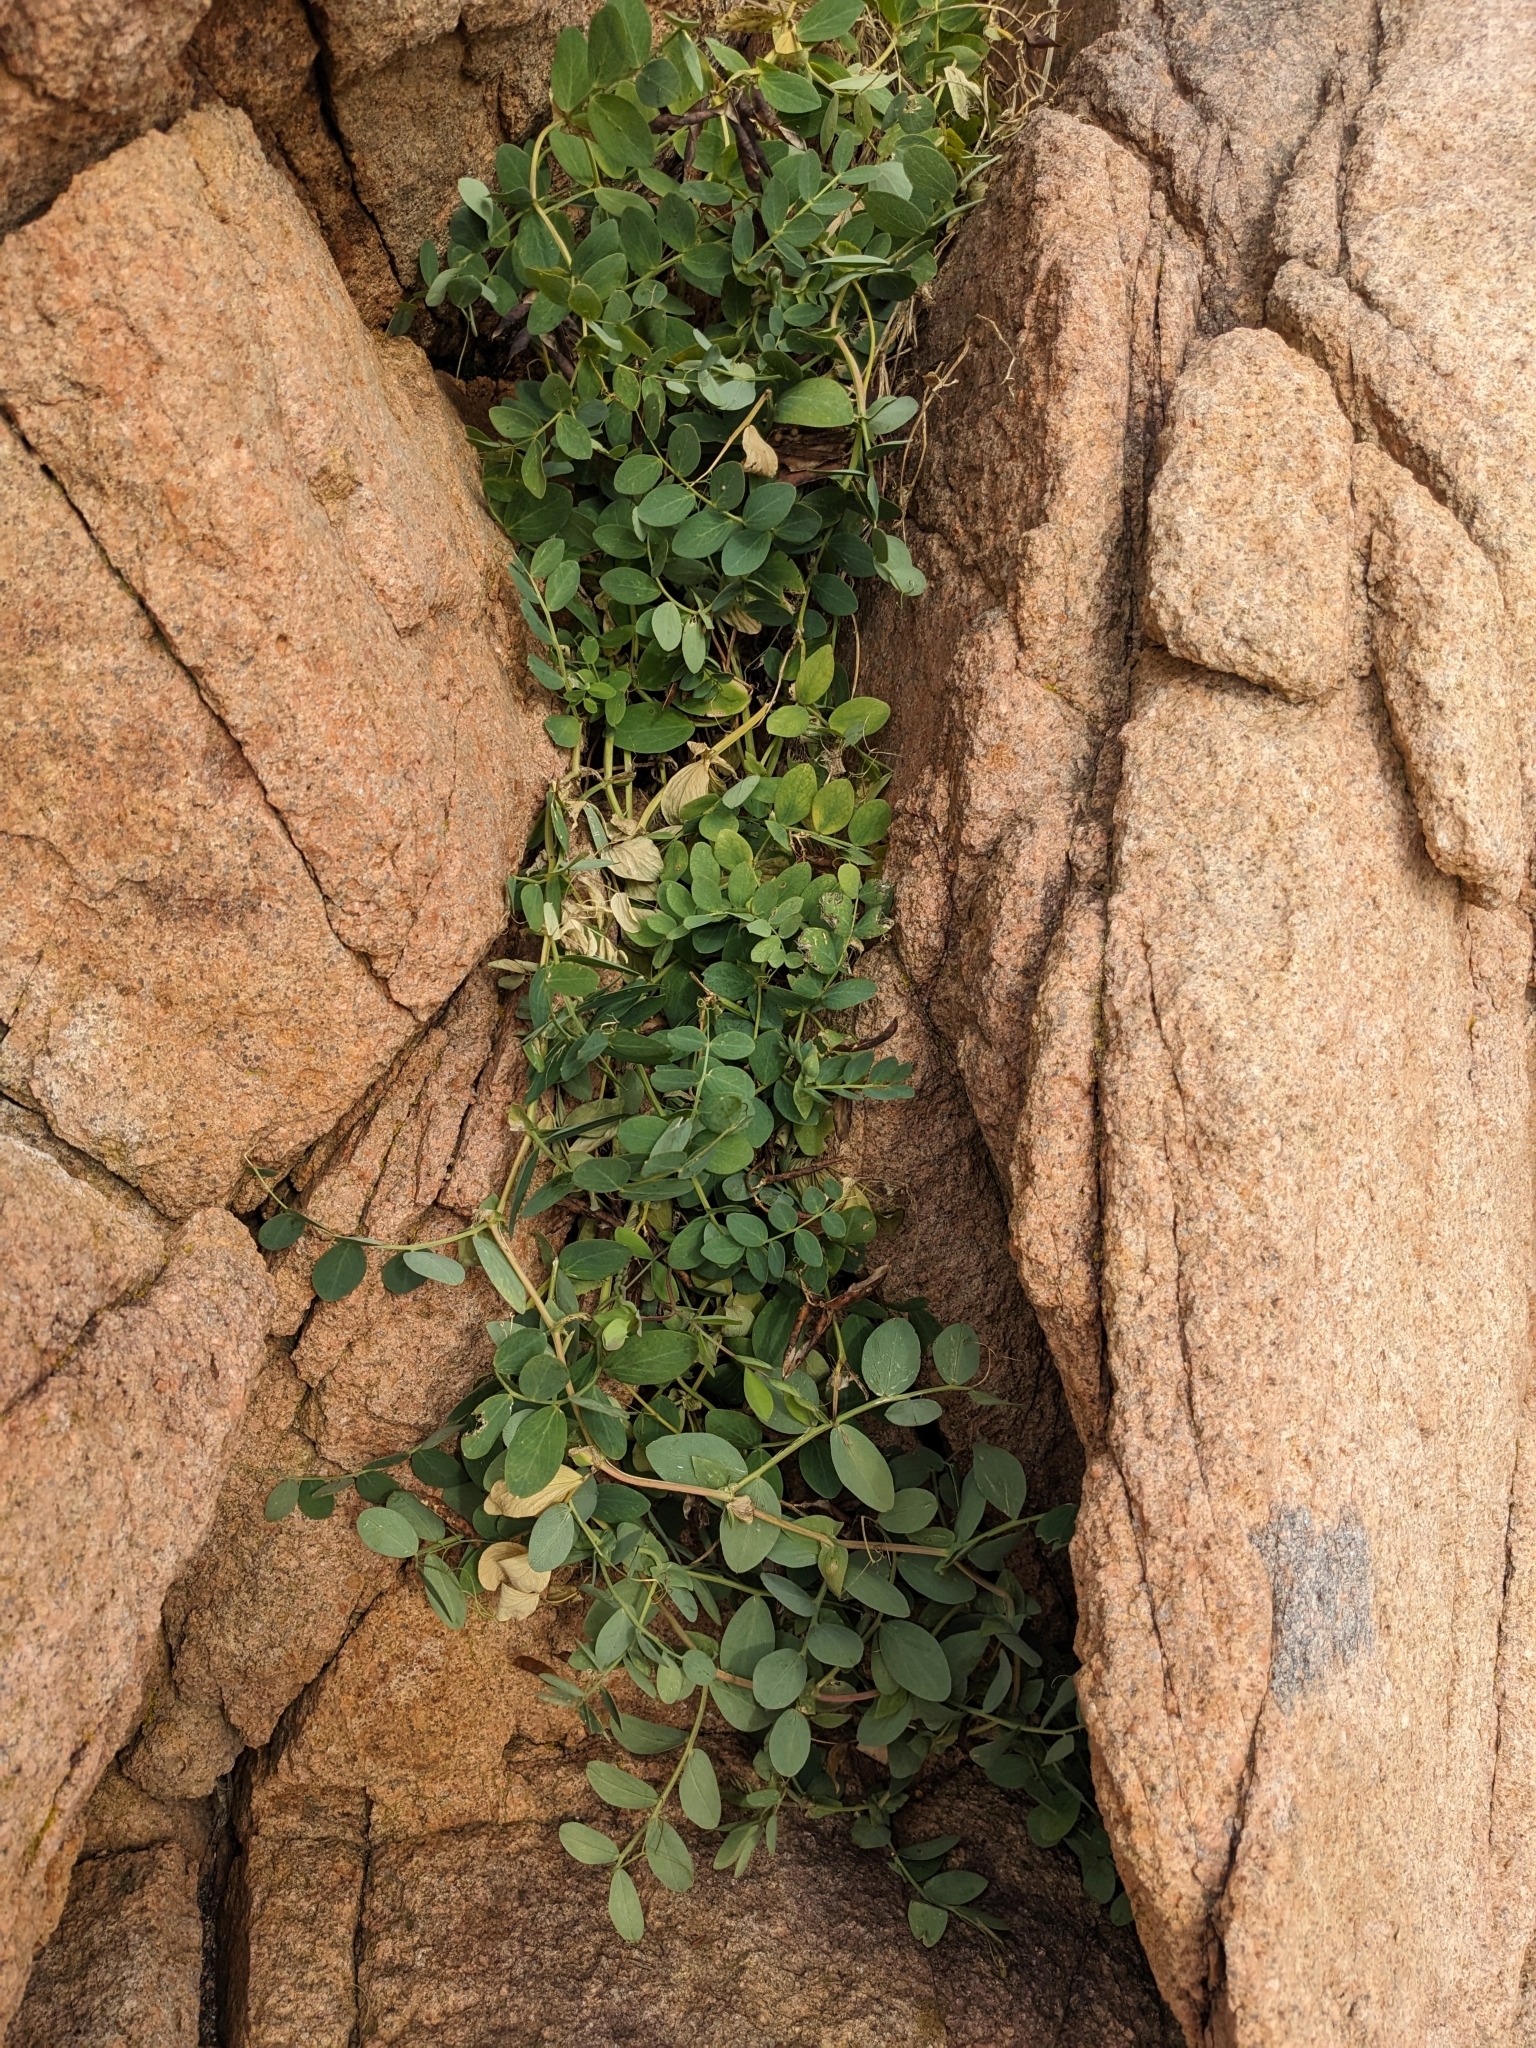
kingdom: Plantae
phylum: Tracheophyta
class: Magnoliopsida
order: Fabales
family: Fabaceae
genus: Lathyrus
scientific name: Lathyrus japonicus
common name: Sea pea
